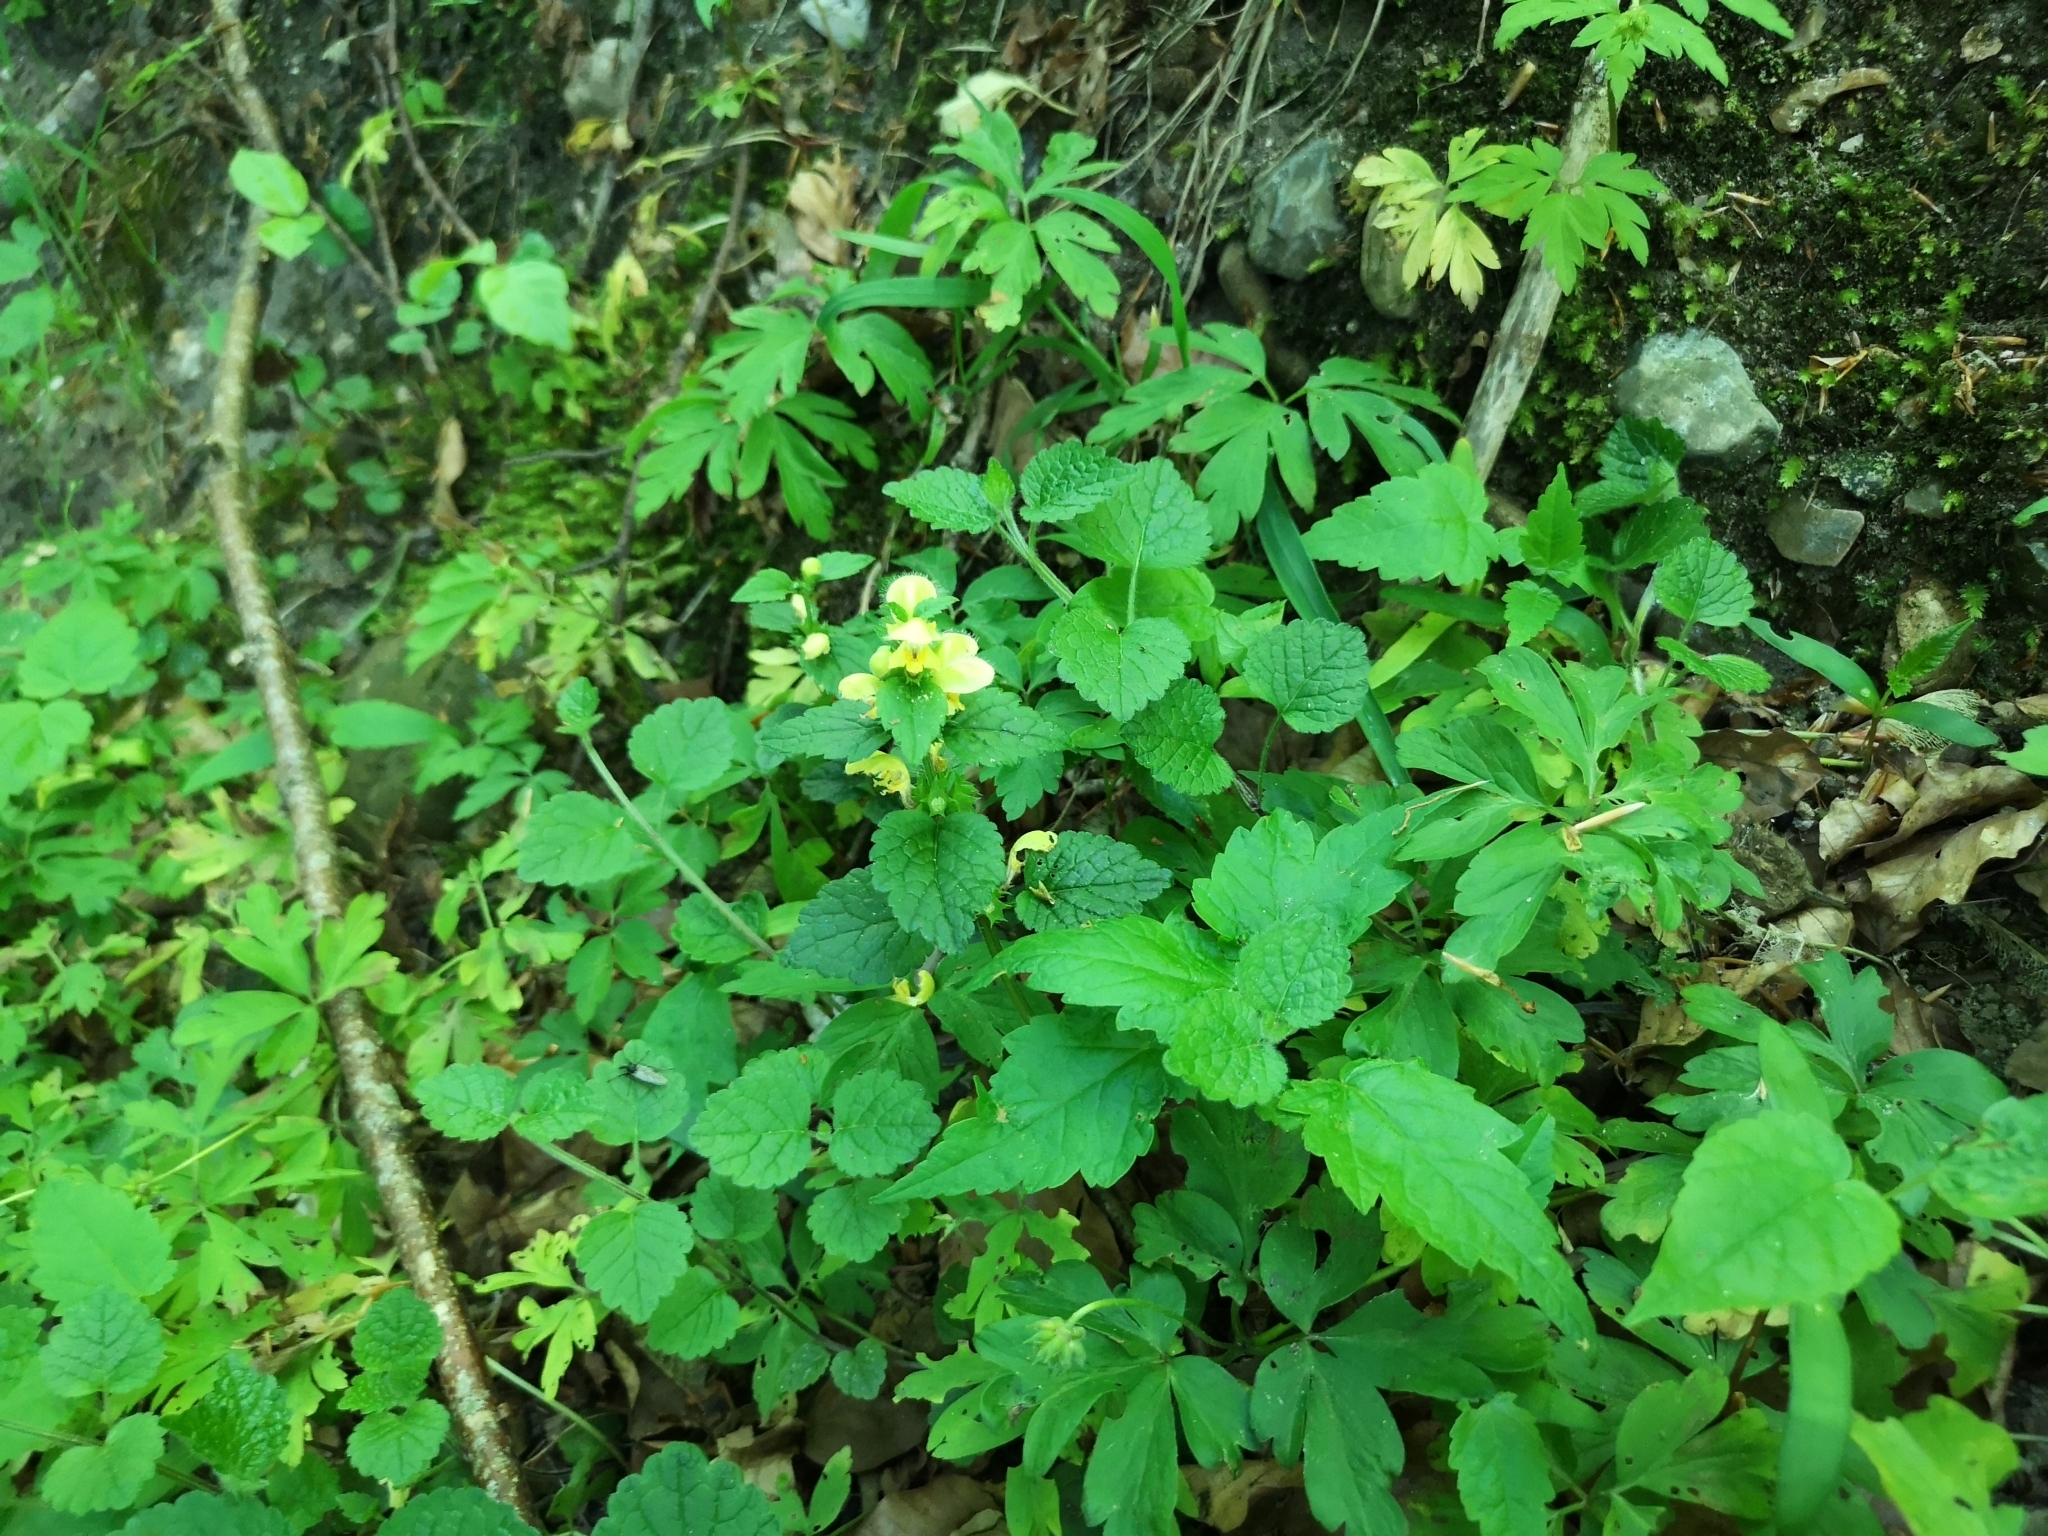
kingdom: Plantae
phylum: Tracheophyta
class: Magnoliopsida
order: Lamiales
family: Lamiaceae
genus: Lamium
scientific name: Lamium galeobdolon
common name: Yellow archangel
